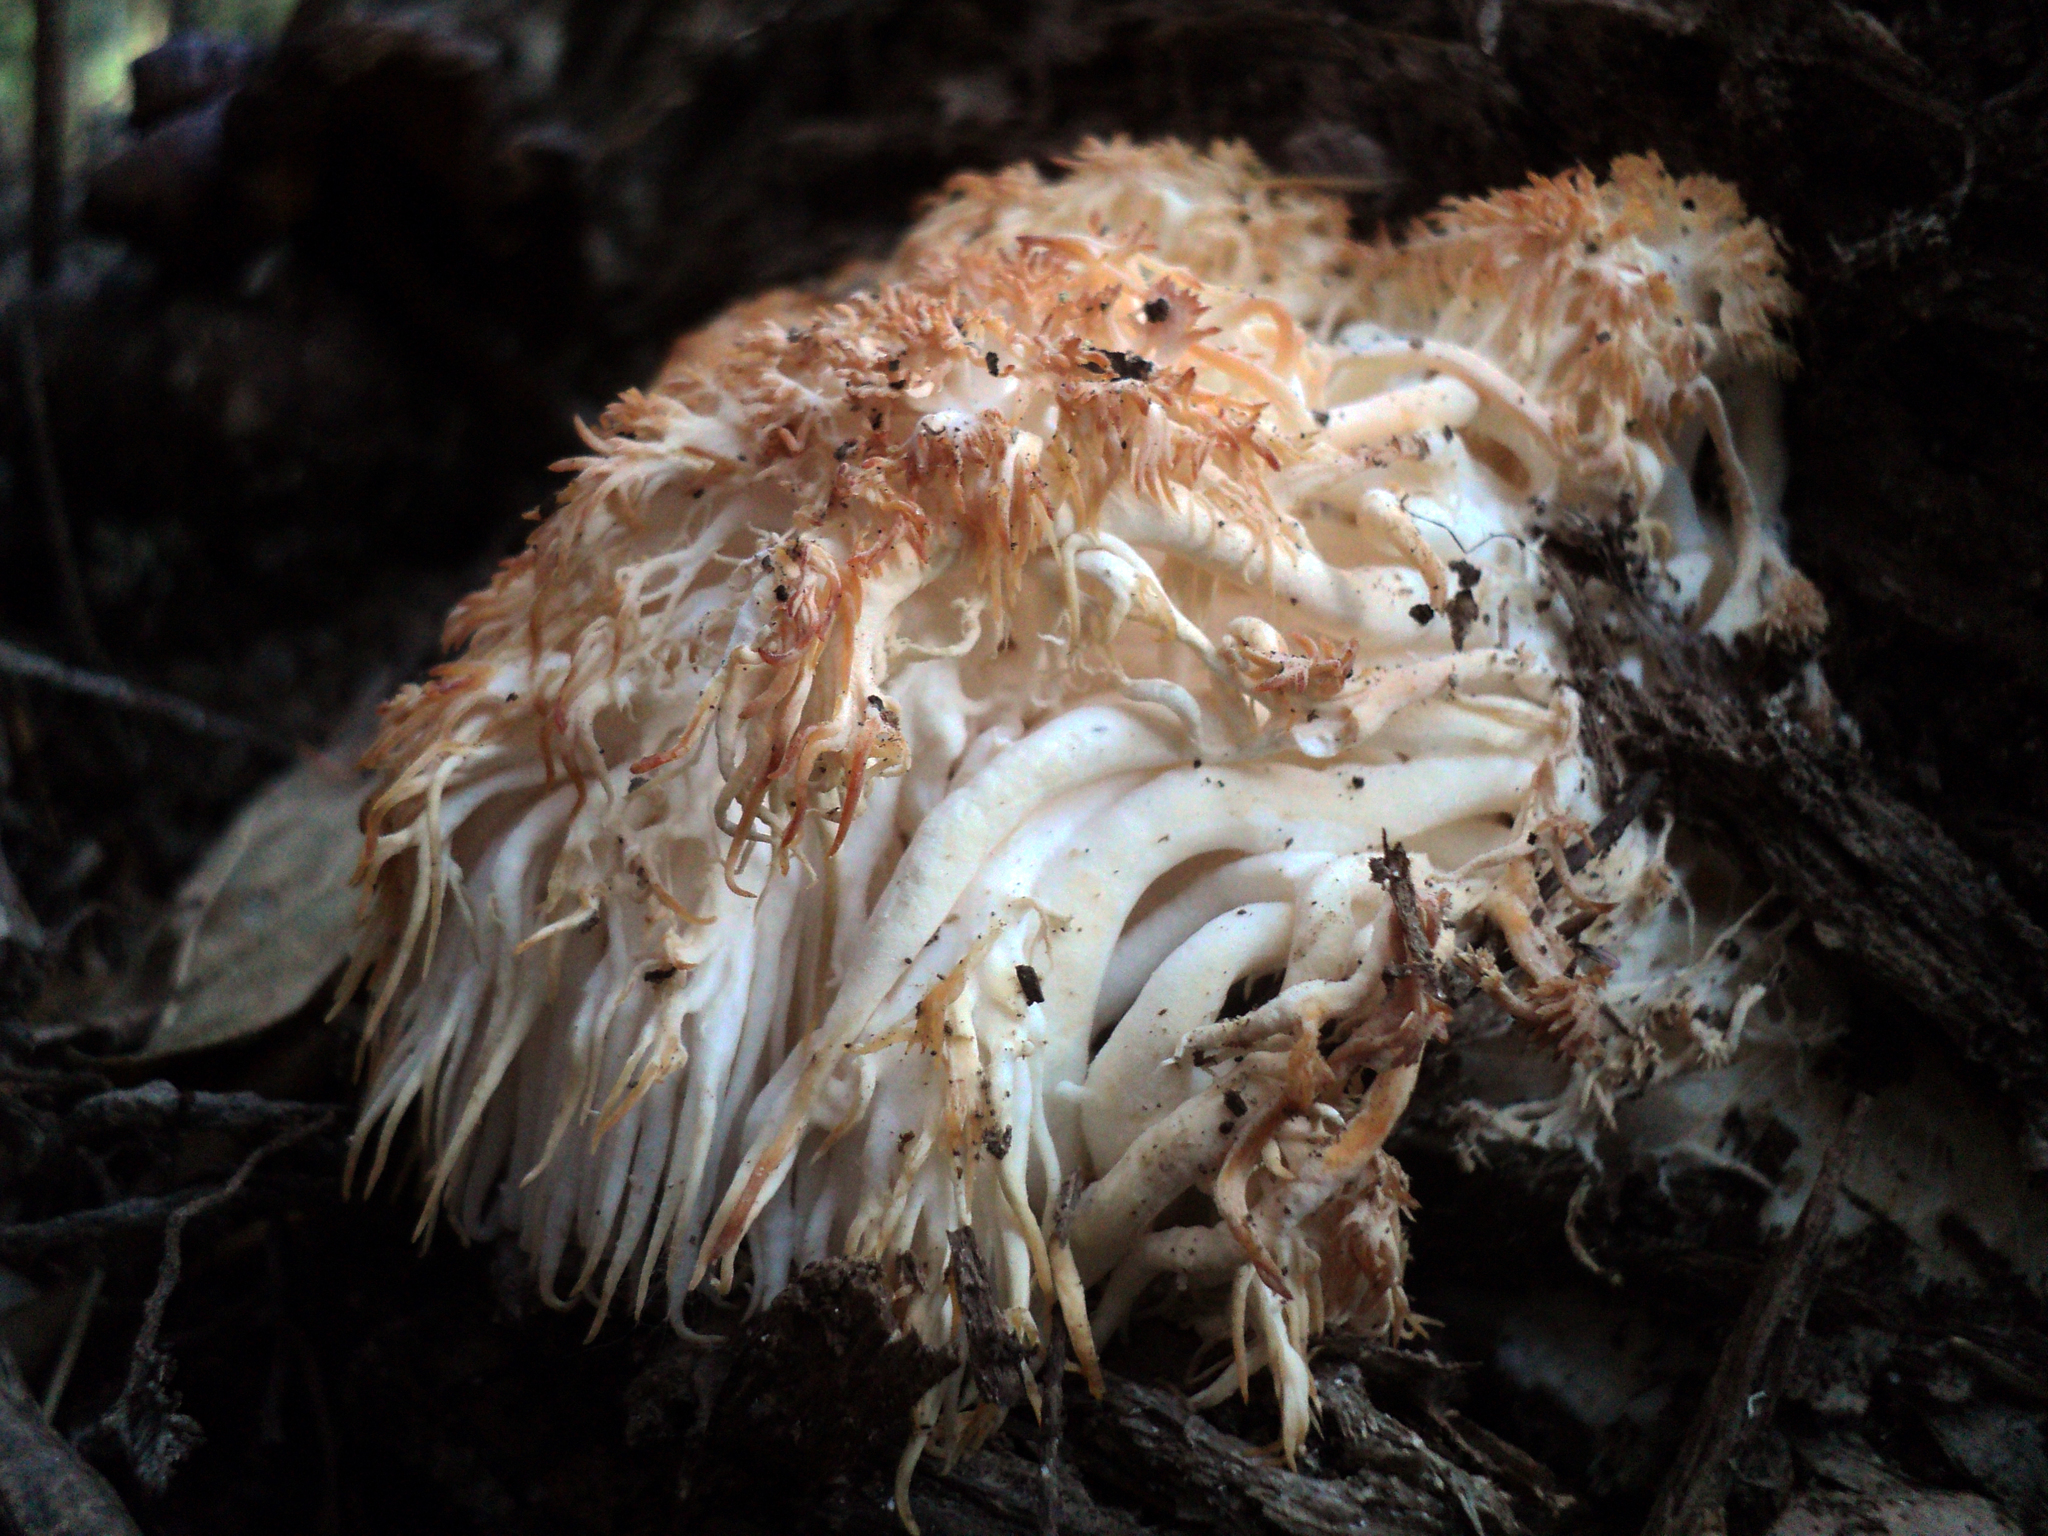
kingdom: Fungi
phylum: Basidiomycota
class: Agaricomycetes
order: Russulales
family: Hericiaceae
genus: Hericium
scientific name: Hericium erinaceus
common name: Bearded tooth
